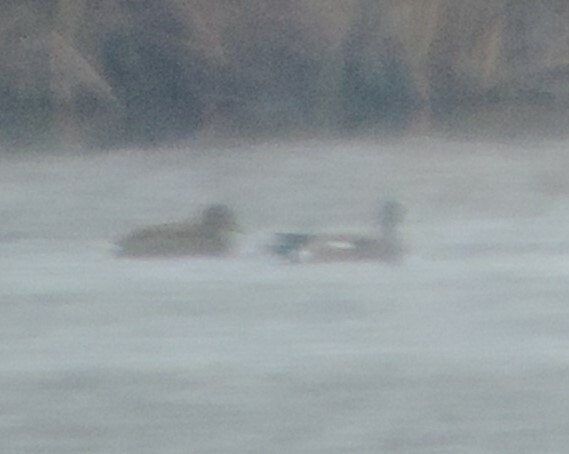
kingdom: Animalia
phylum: Chordata
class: Aves
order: Anseriformes
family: Anatidae
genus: Mareca
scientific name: Mareca americana
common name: American wigeon
